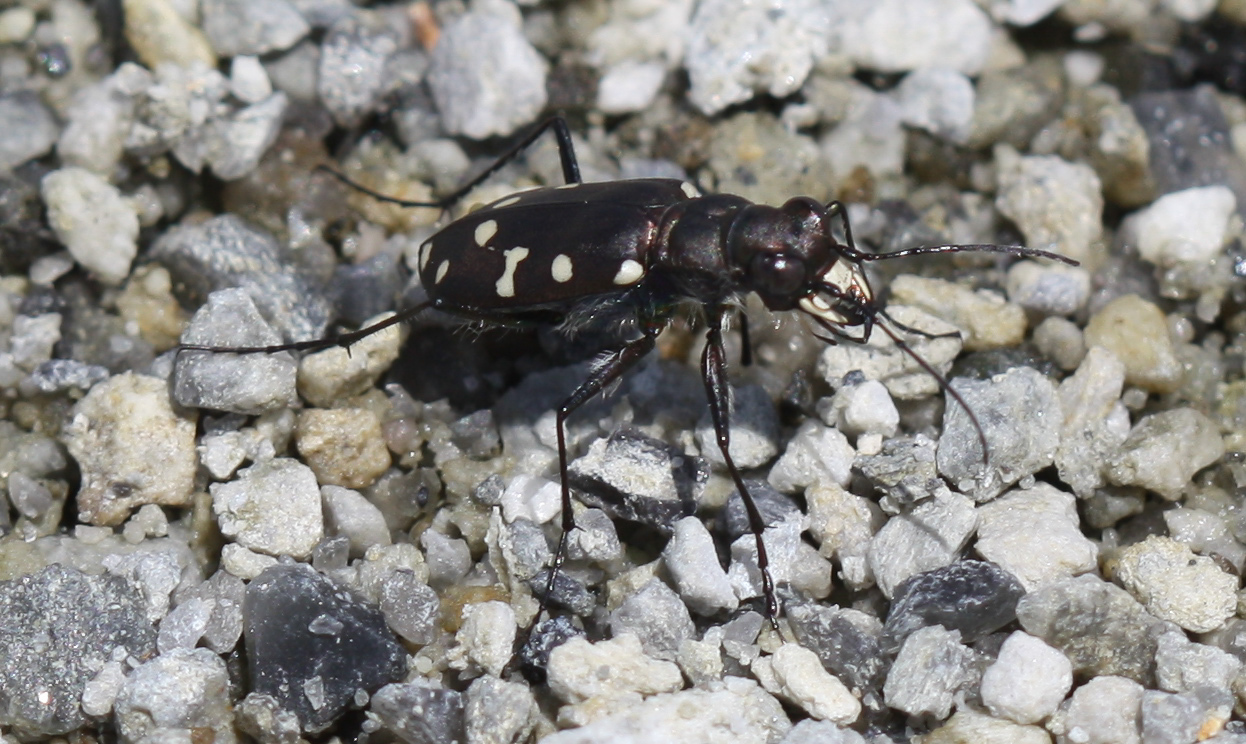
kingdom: Animalia
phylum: Arthropoda
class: Insecta
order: Coleoptera
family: Carabidae
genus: Cicindela
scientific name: Cicindela oregona
